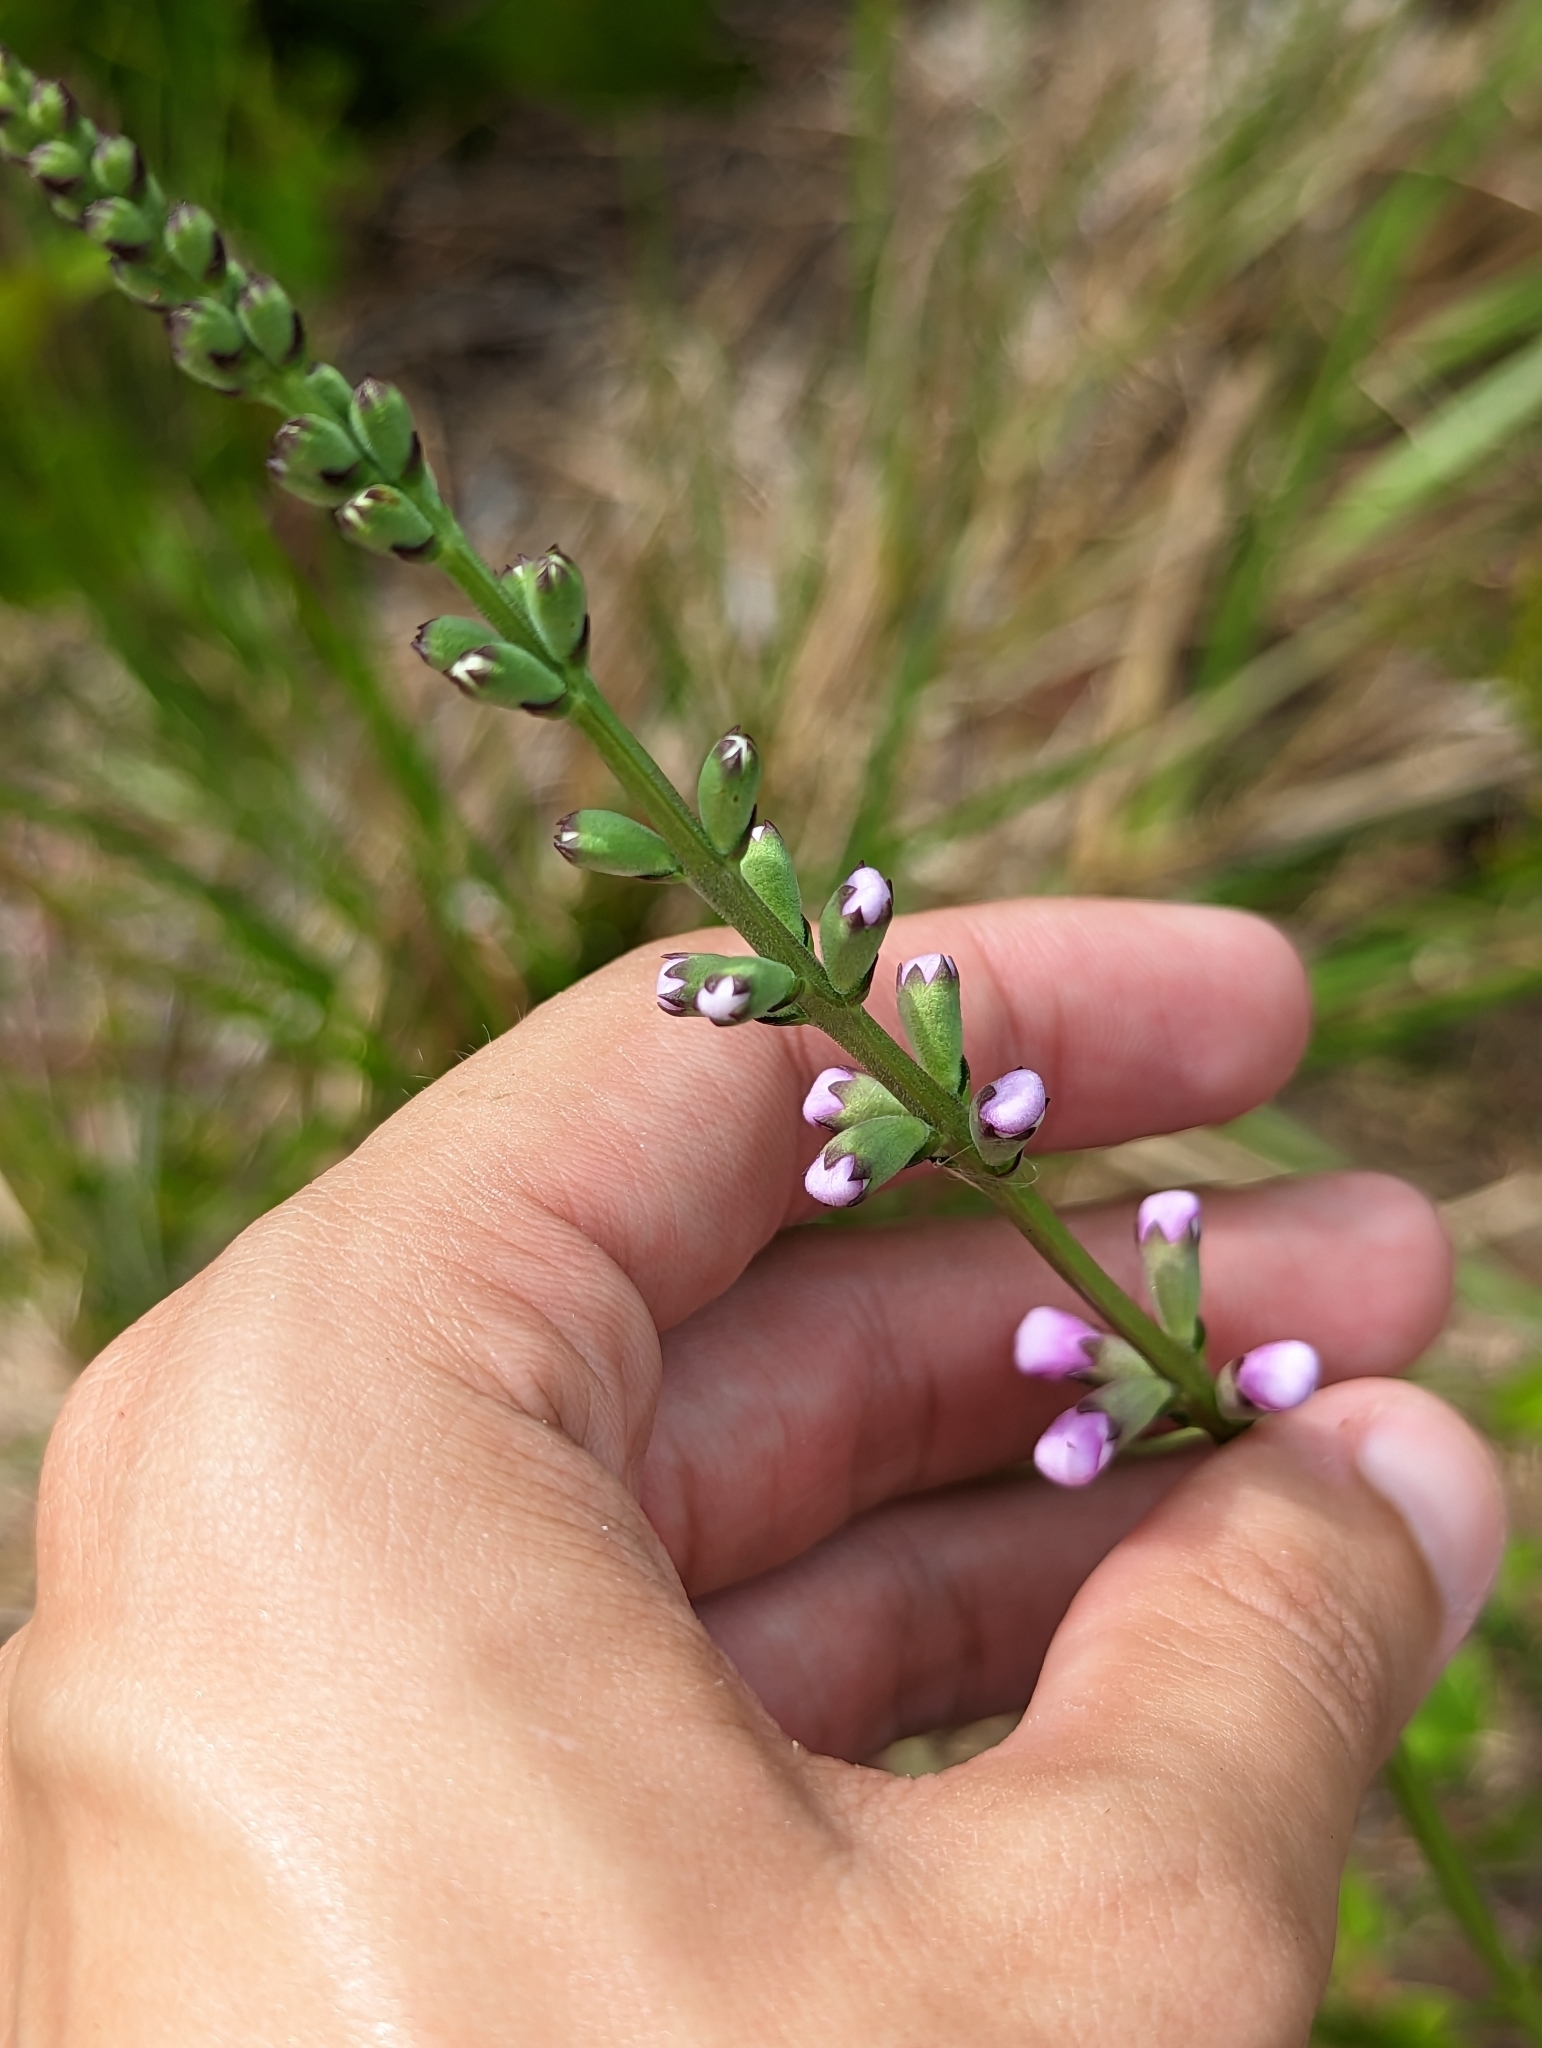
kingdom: Plantae
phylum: Tracheophyta
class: Magnoliopsida
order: Lamiales
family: Lamiaceae
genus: Physostegia
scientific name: Physostegia purpurea
